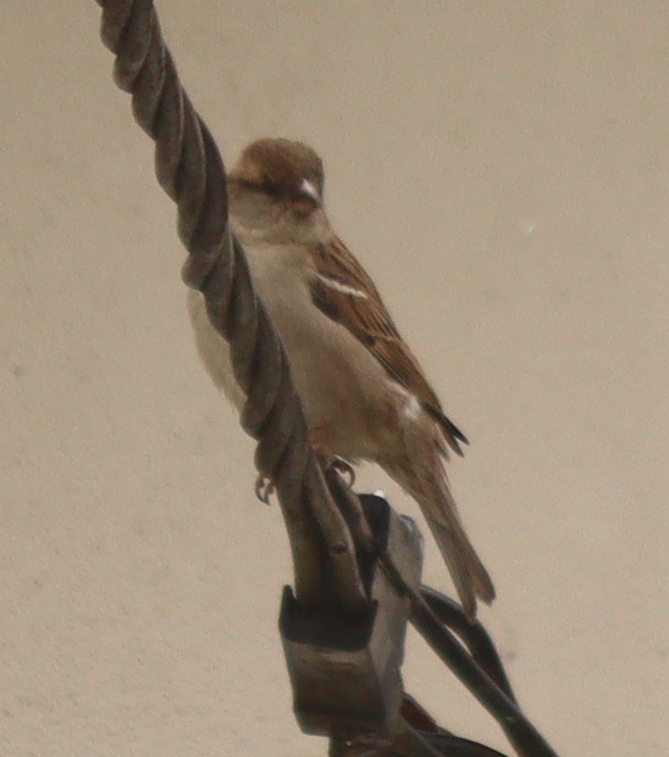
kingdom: Animalia
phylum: Chordata
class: Aves
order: Passeriformes
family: Passeridae
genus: Passer
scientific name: Passer domesticus
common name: House sparrow
